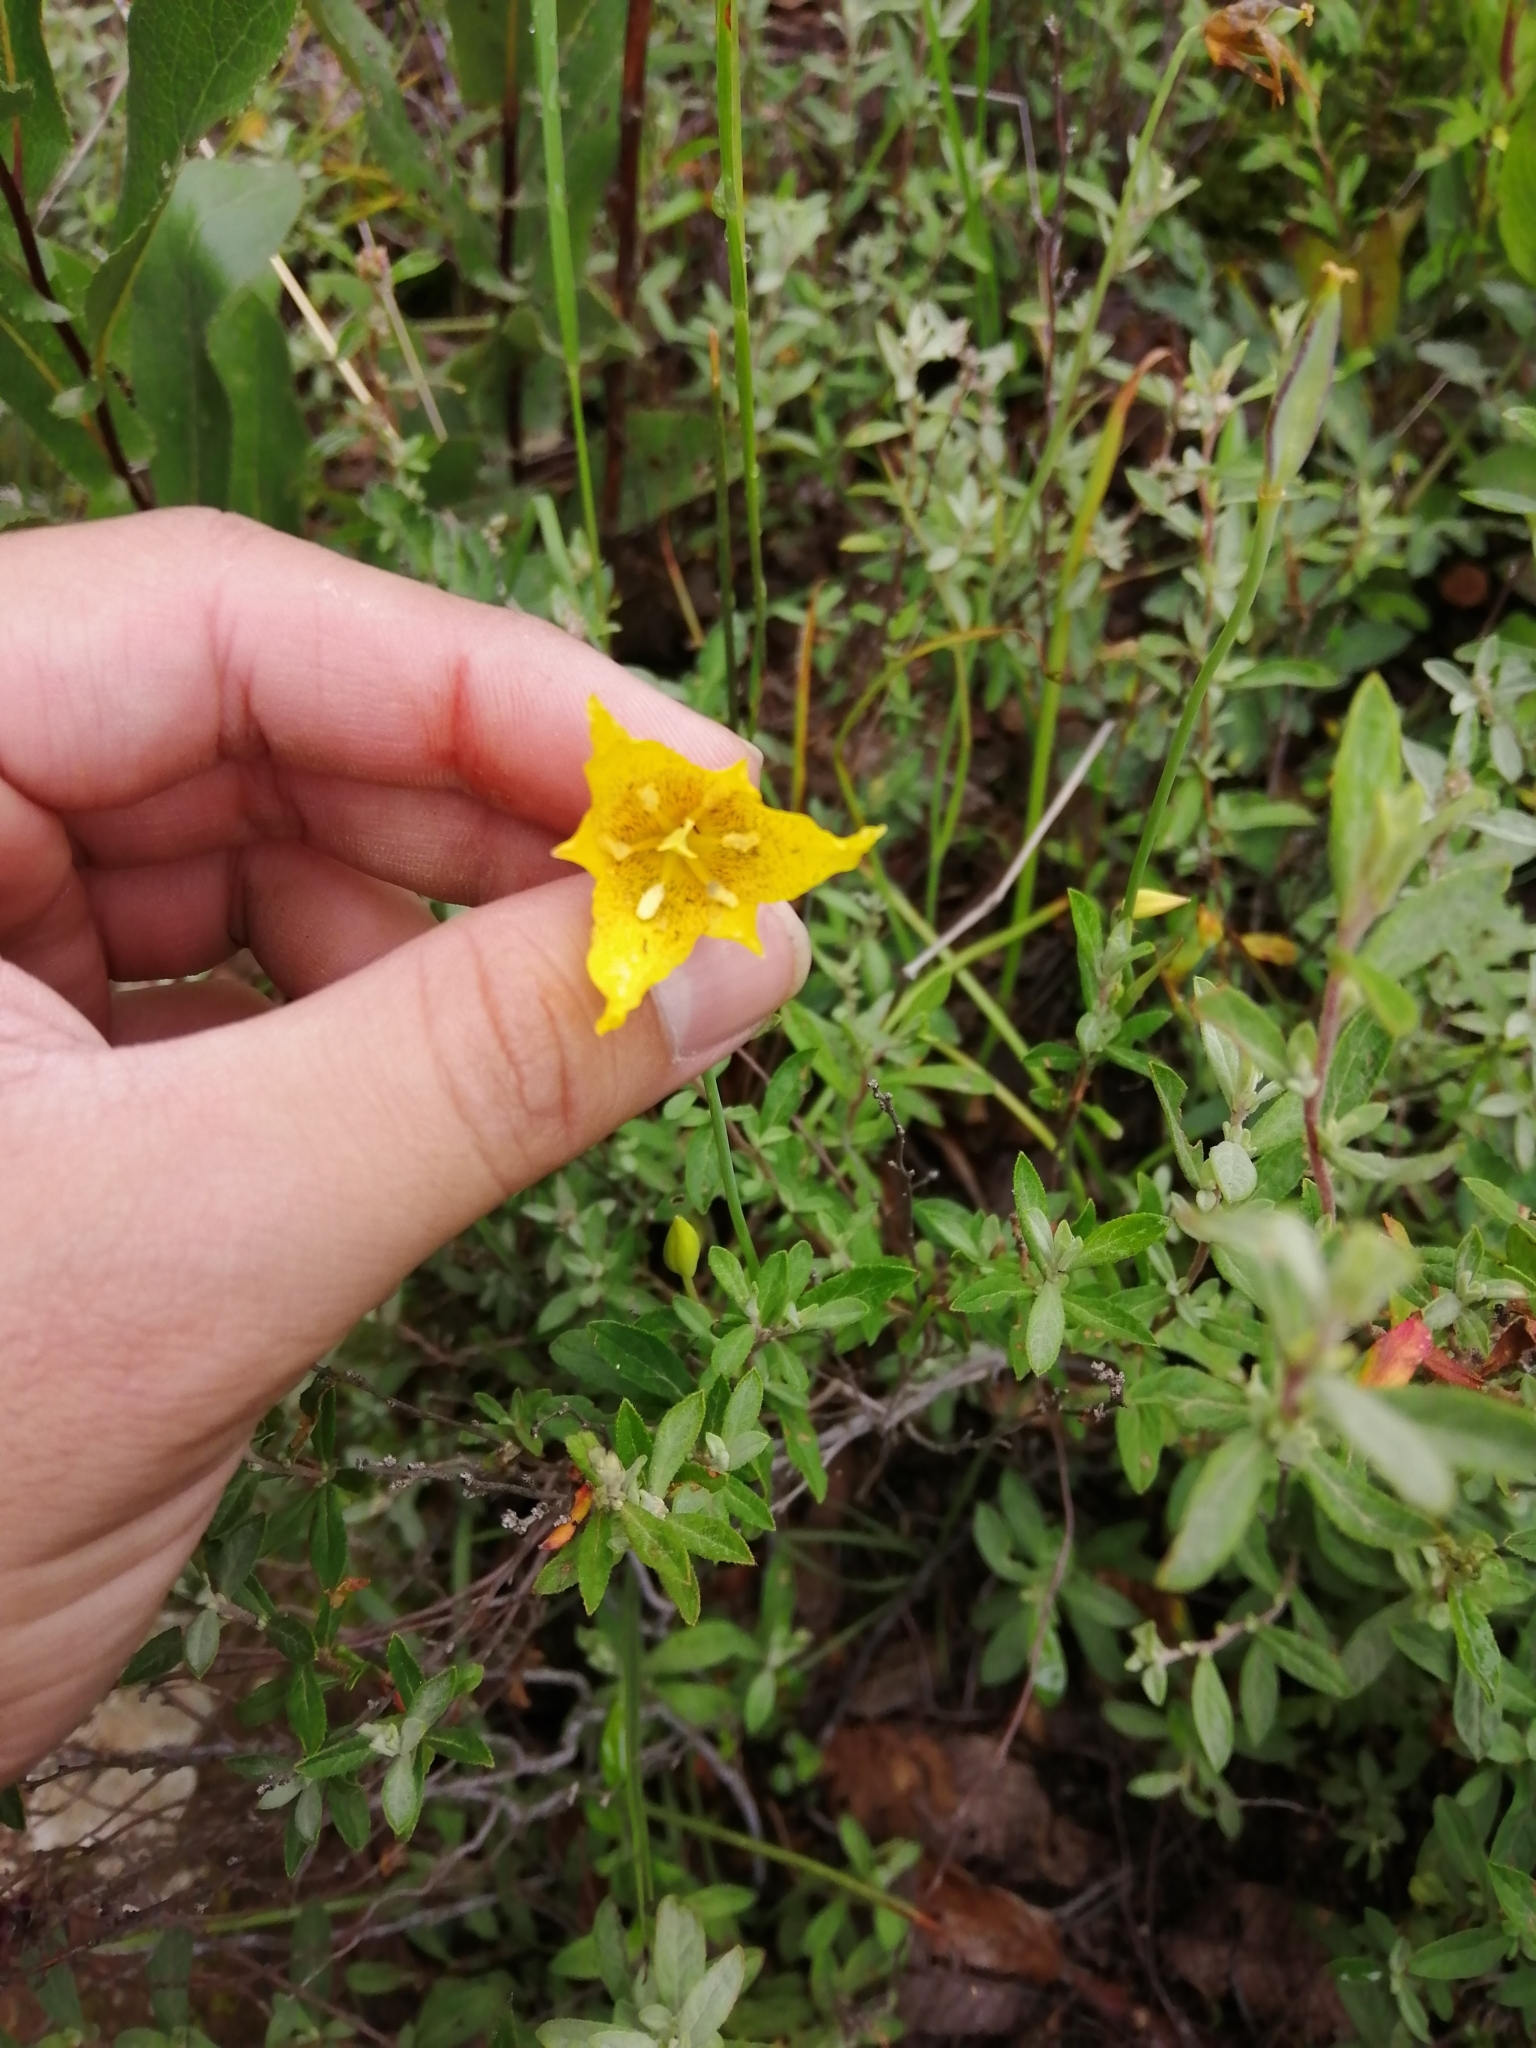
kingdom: Plantae
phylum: Tracheophyta
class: Liliopsida
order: Liliales
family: Liliaceae
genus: Calochortus
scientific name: Calochortus barbatus
